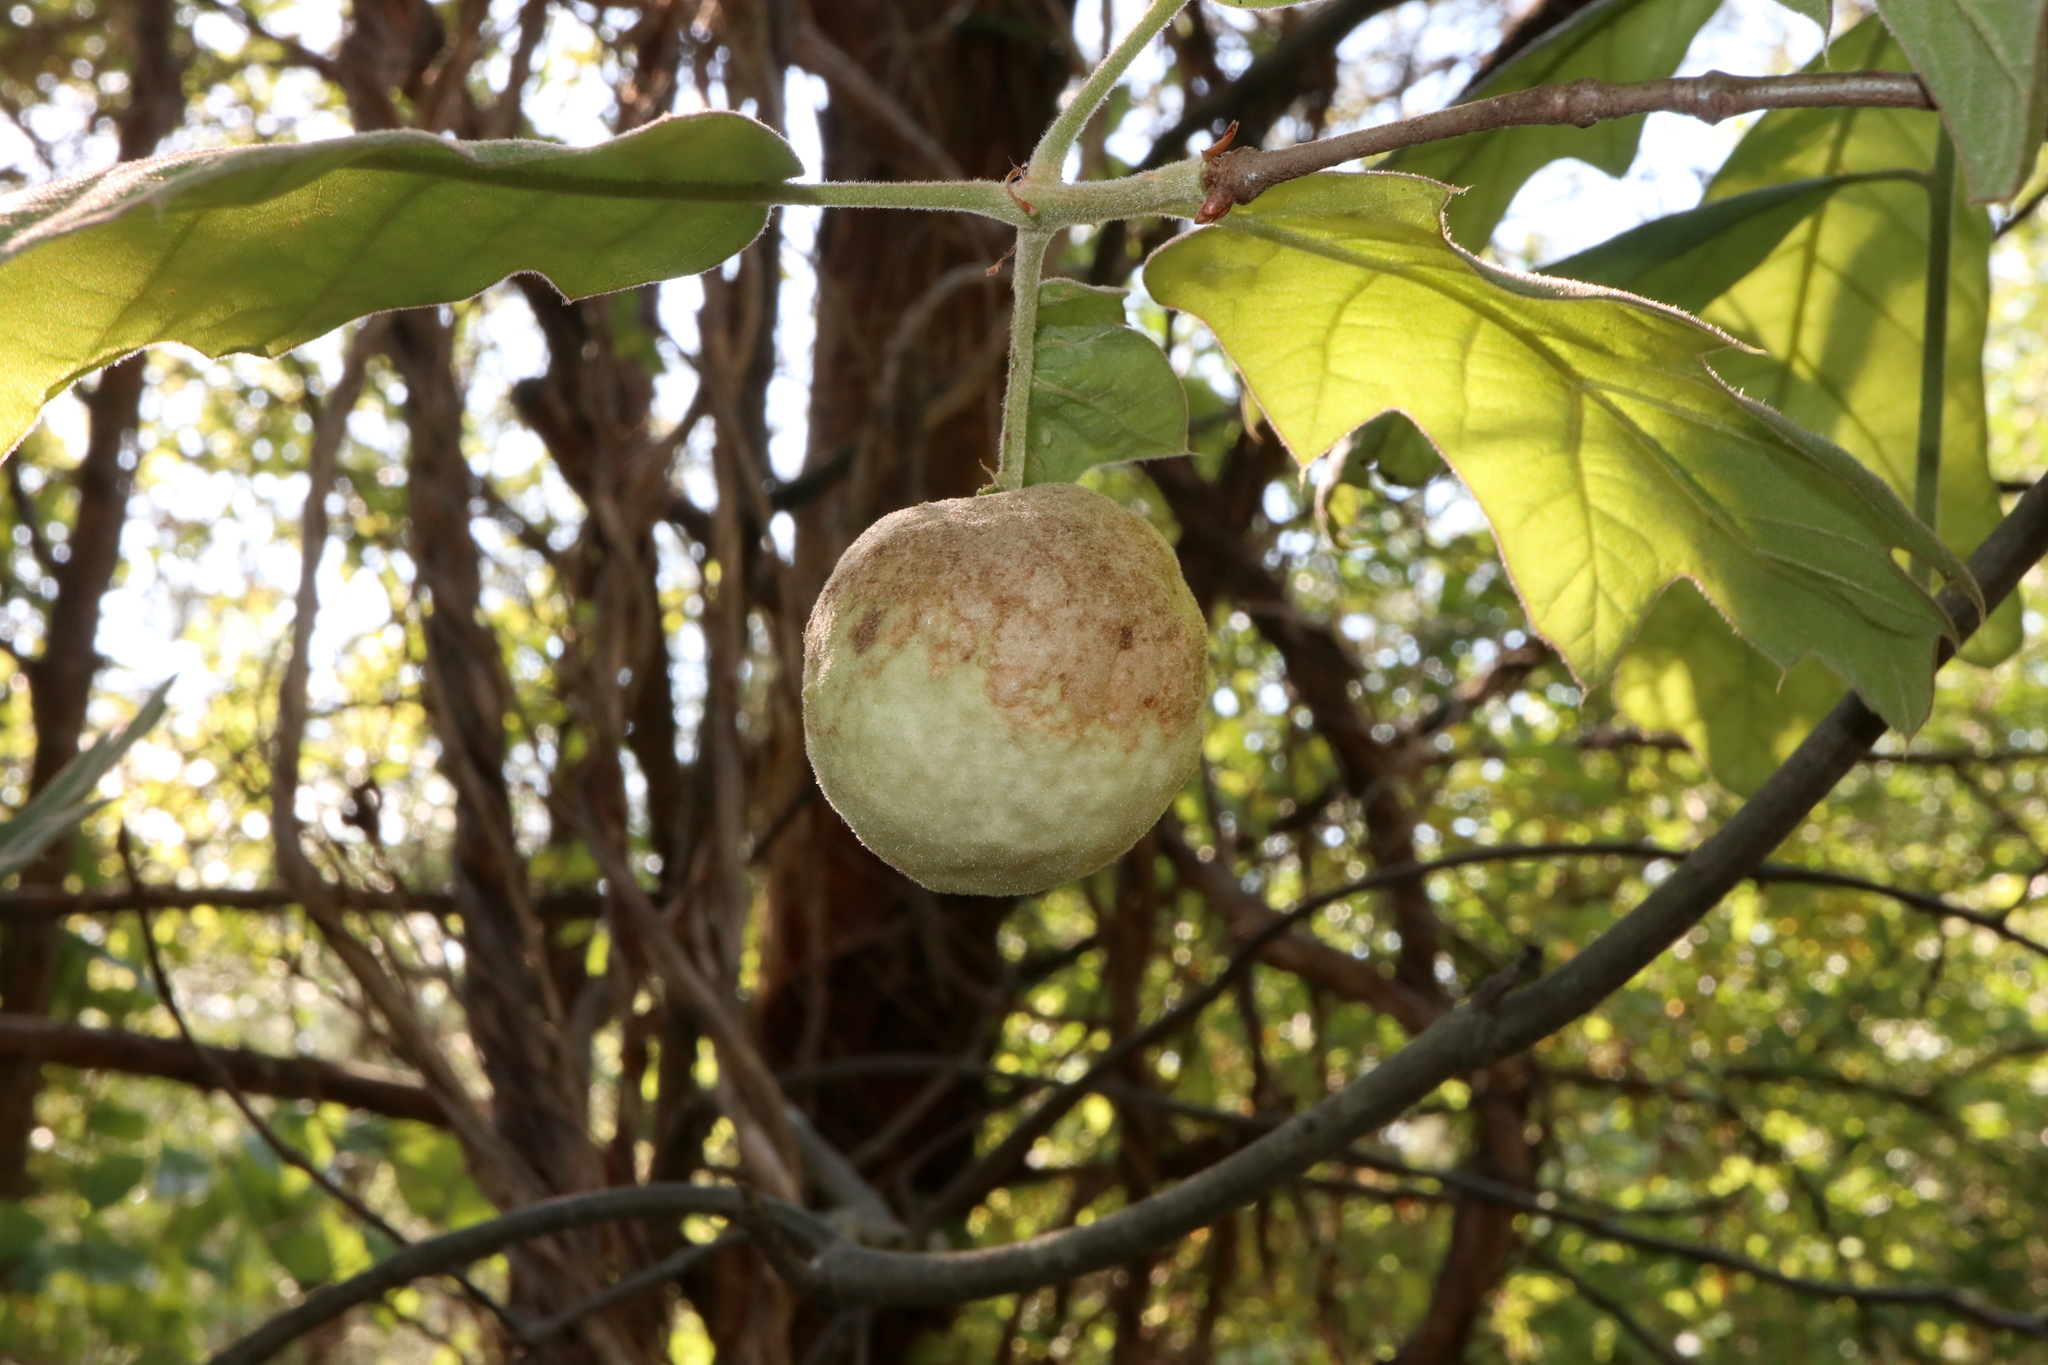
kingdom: Animalia
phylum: Arthropoda
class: Insecta
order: Hymenoptera
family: Cynipidae
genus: Amphibolips
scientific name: Amphibolips
